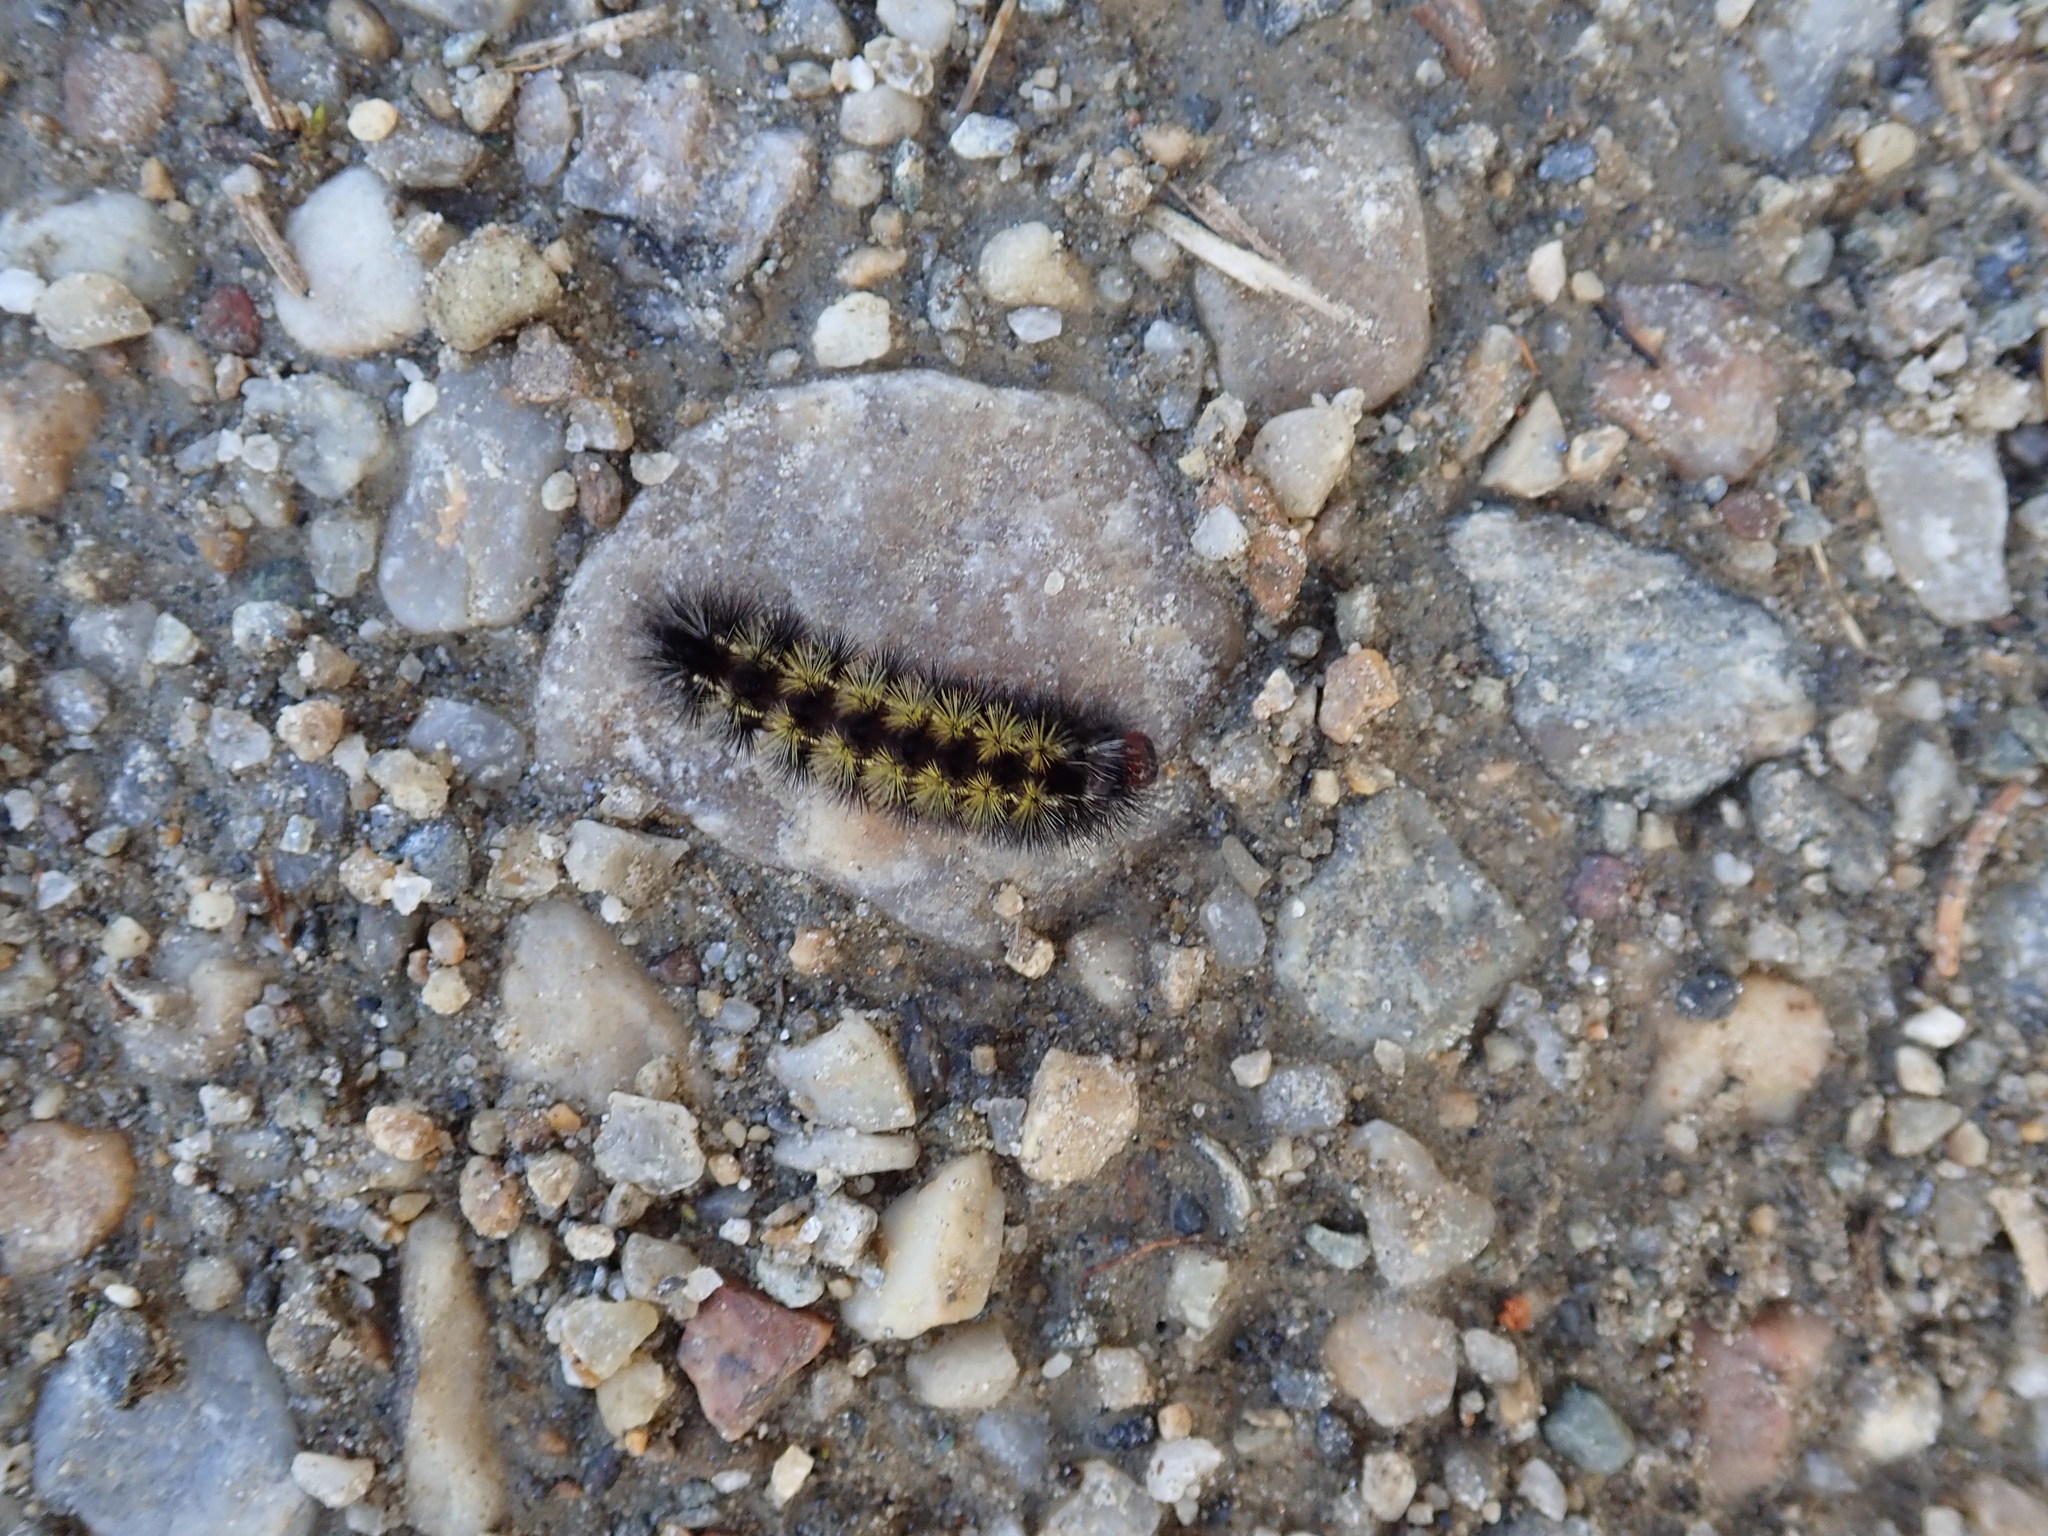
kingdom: Animalia
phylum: Arthropoda
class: Insecta
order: Lepidoptera
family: Erebidae
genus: Ctenucha
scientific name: Ctenucha virginica
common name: Virginia ctenucha moth
